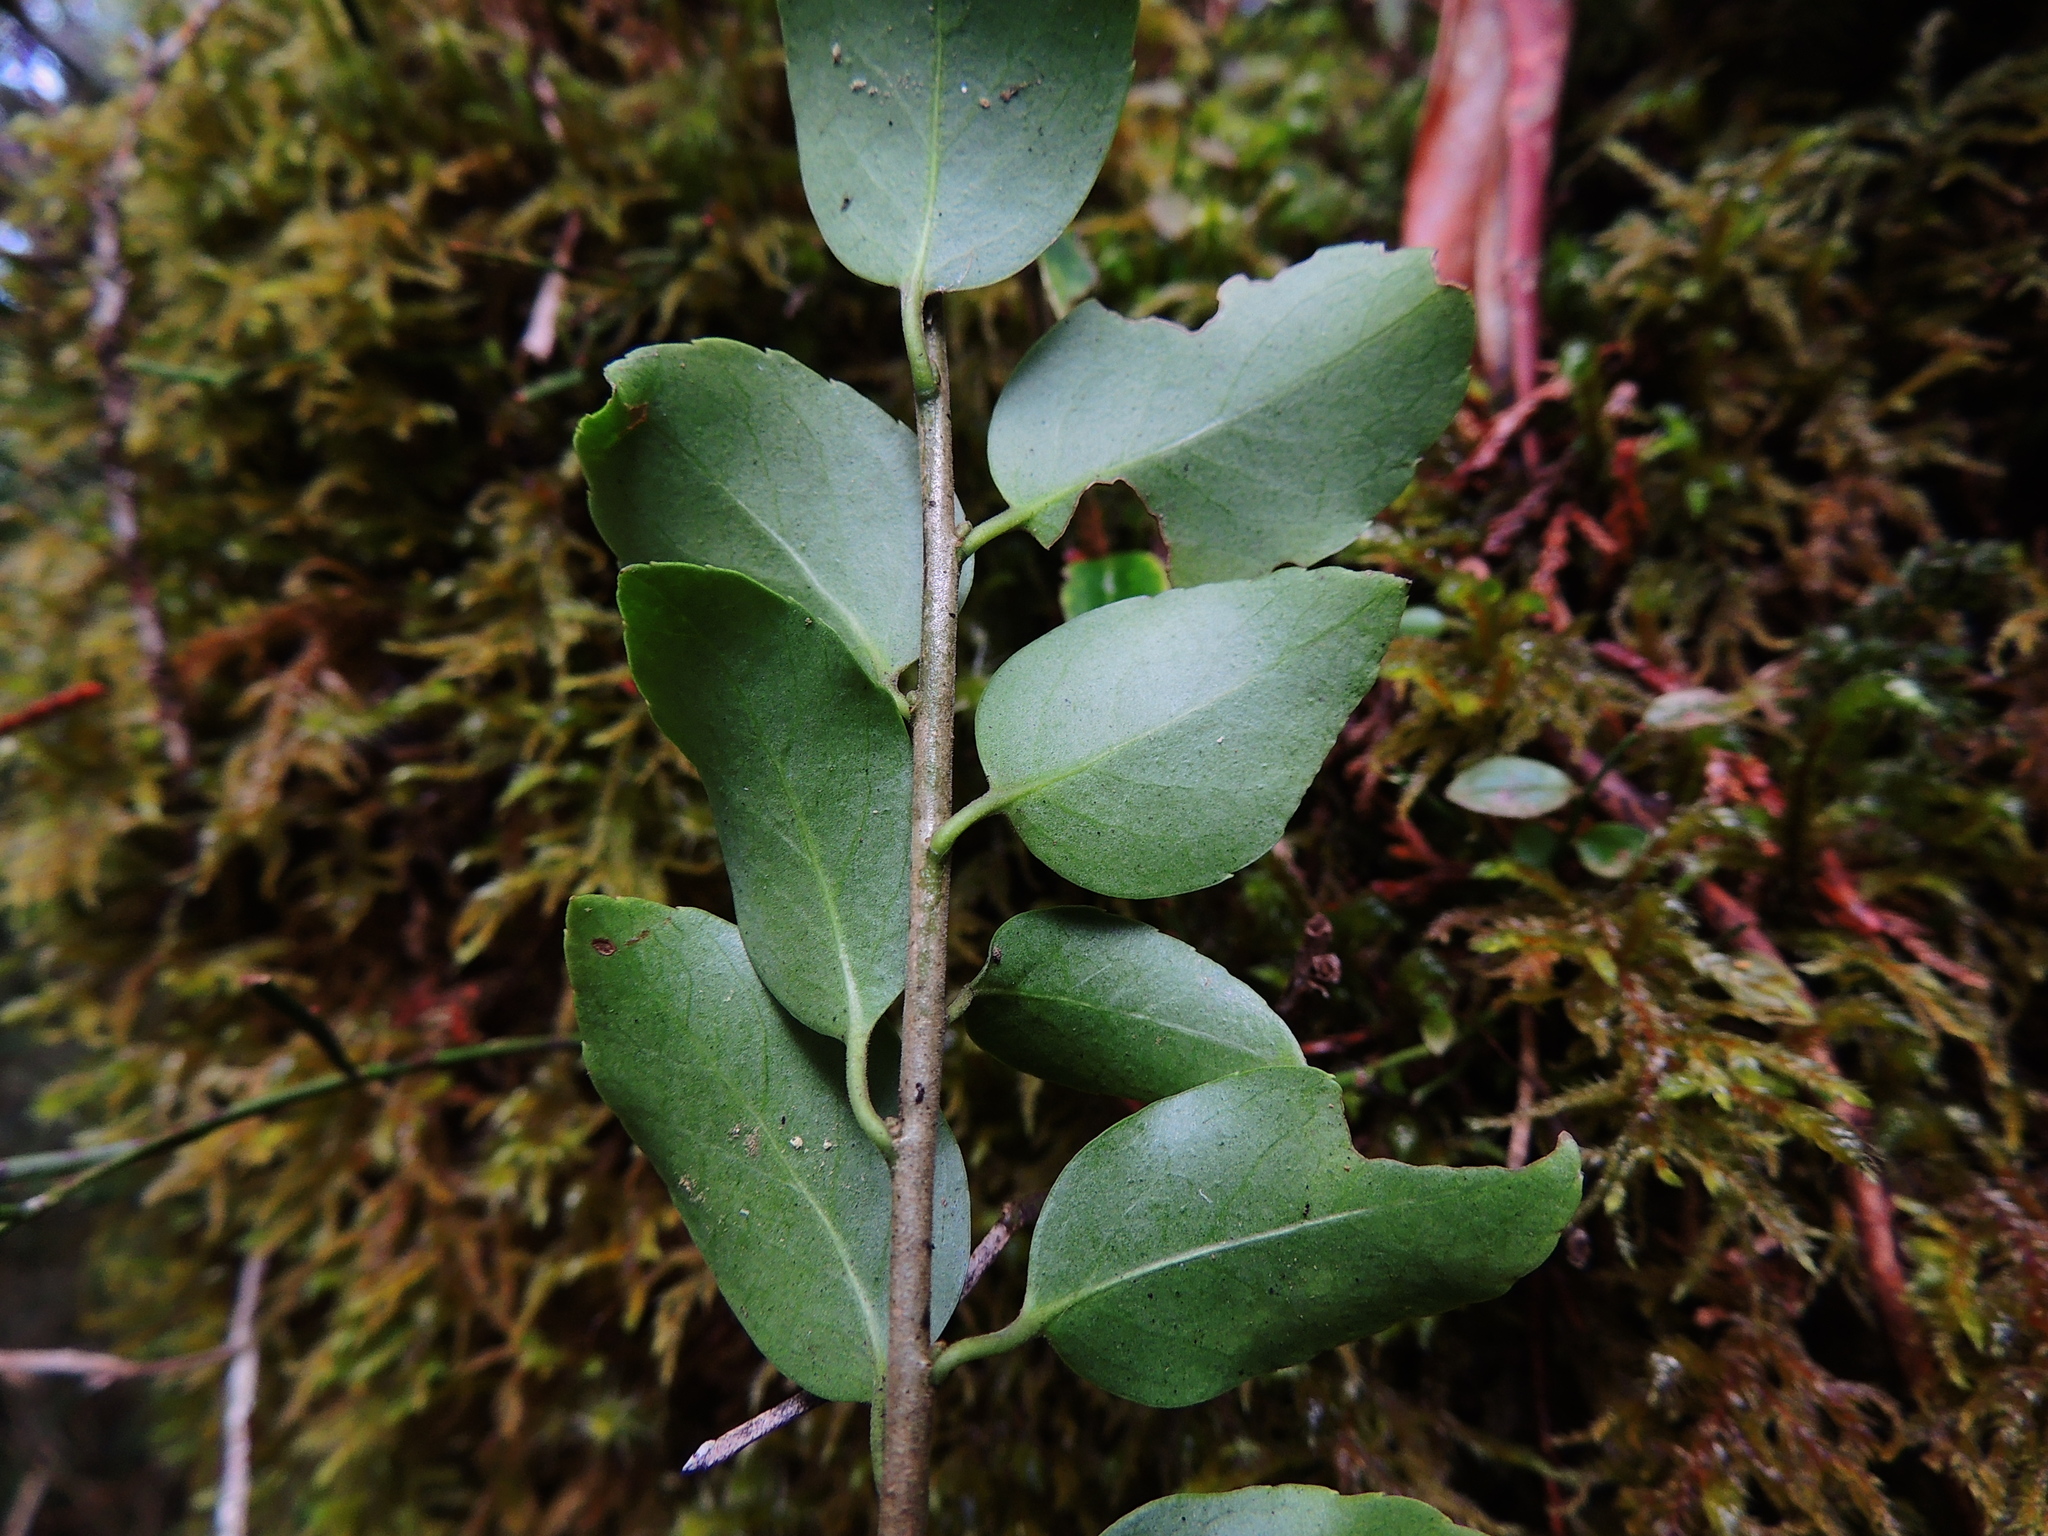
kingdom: Plantae
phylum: Tracheophyta
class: Magnoliopsida
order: Aquifoliales
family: Aquifoliaceae
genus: Ilex
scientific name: Ilex sugerokii
